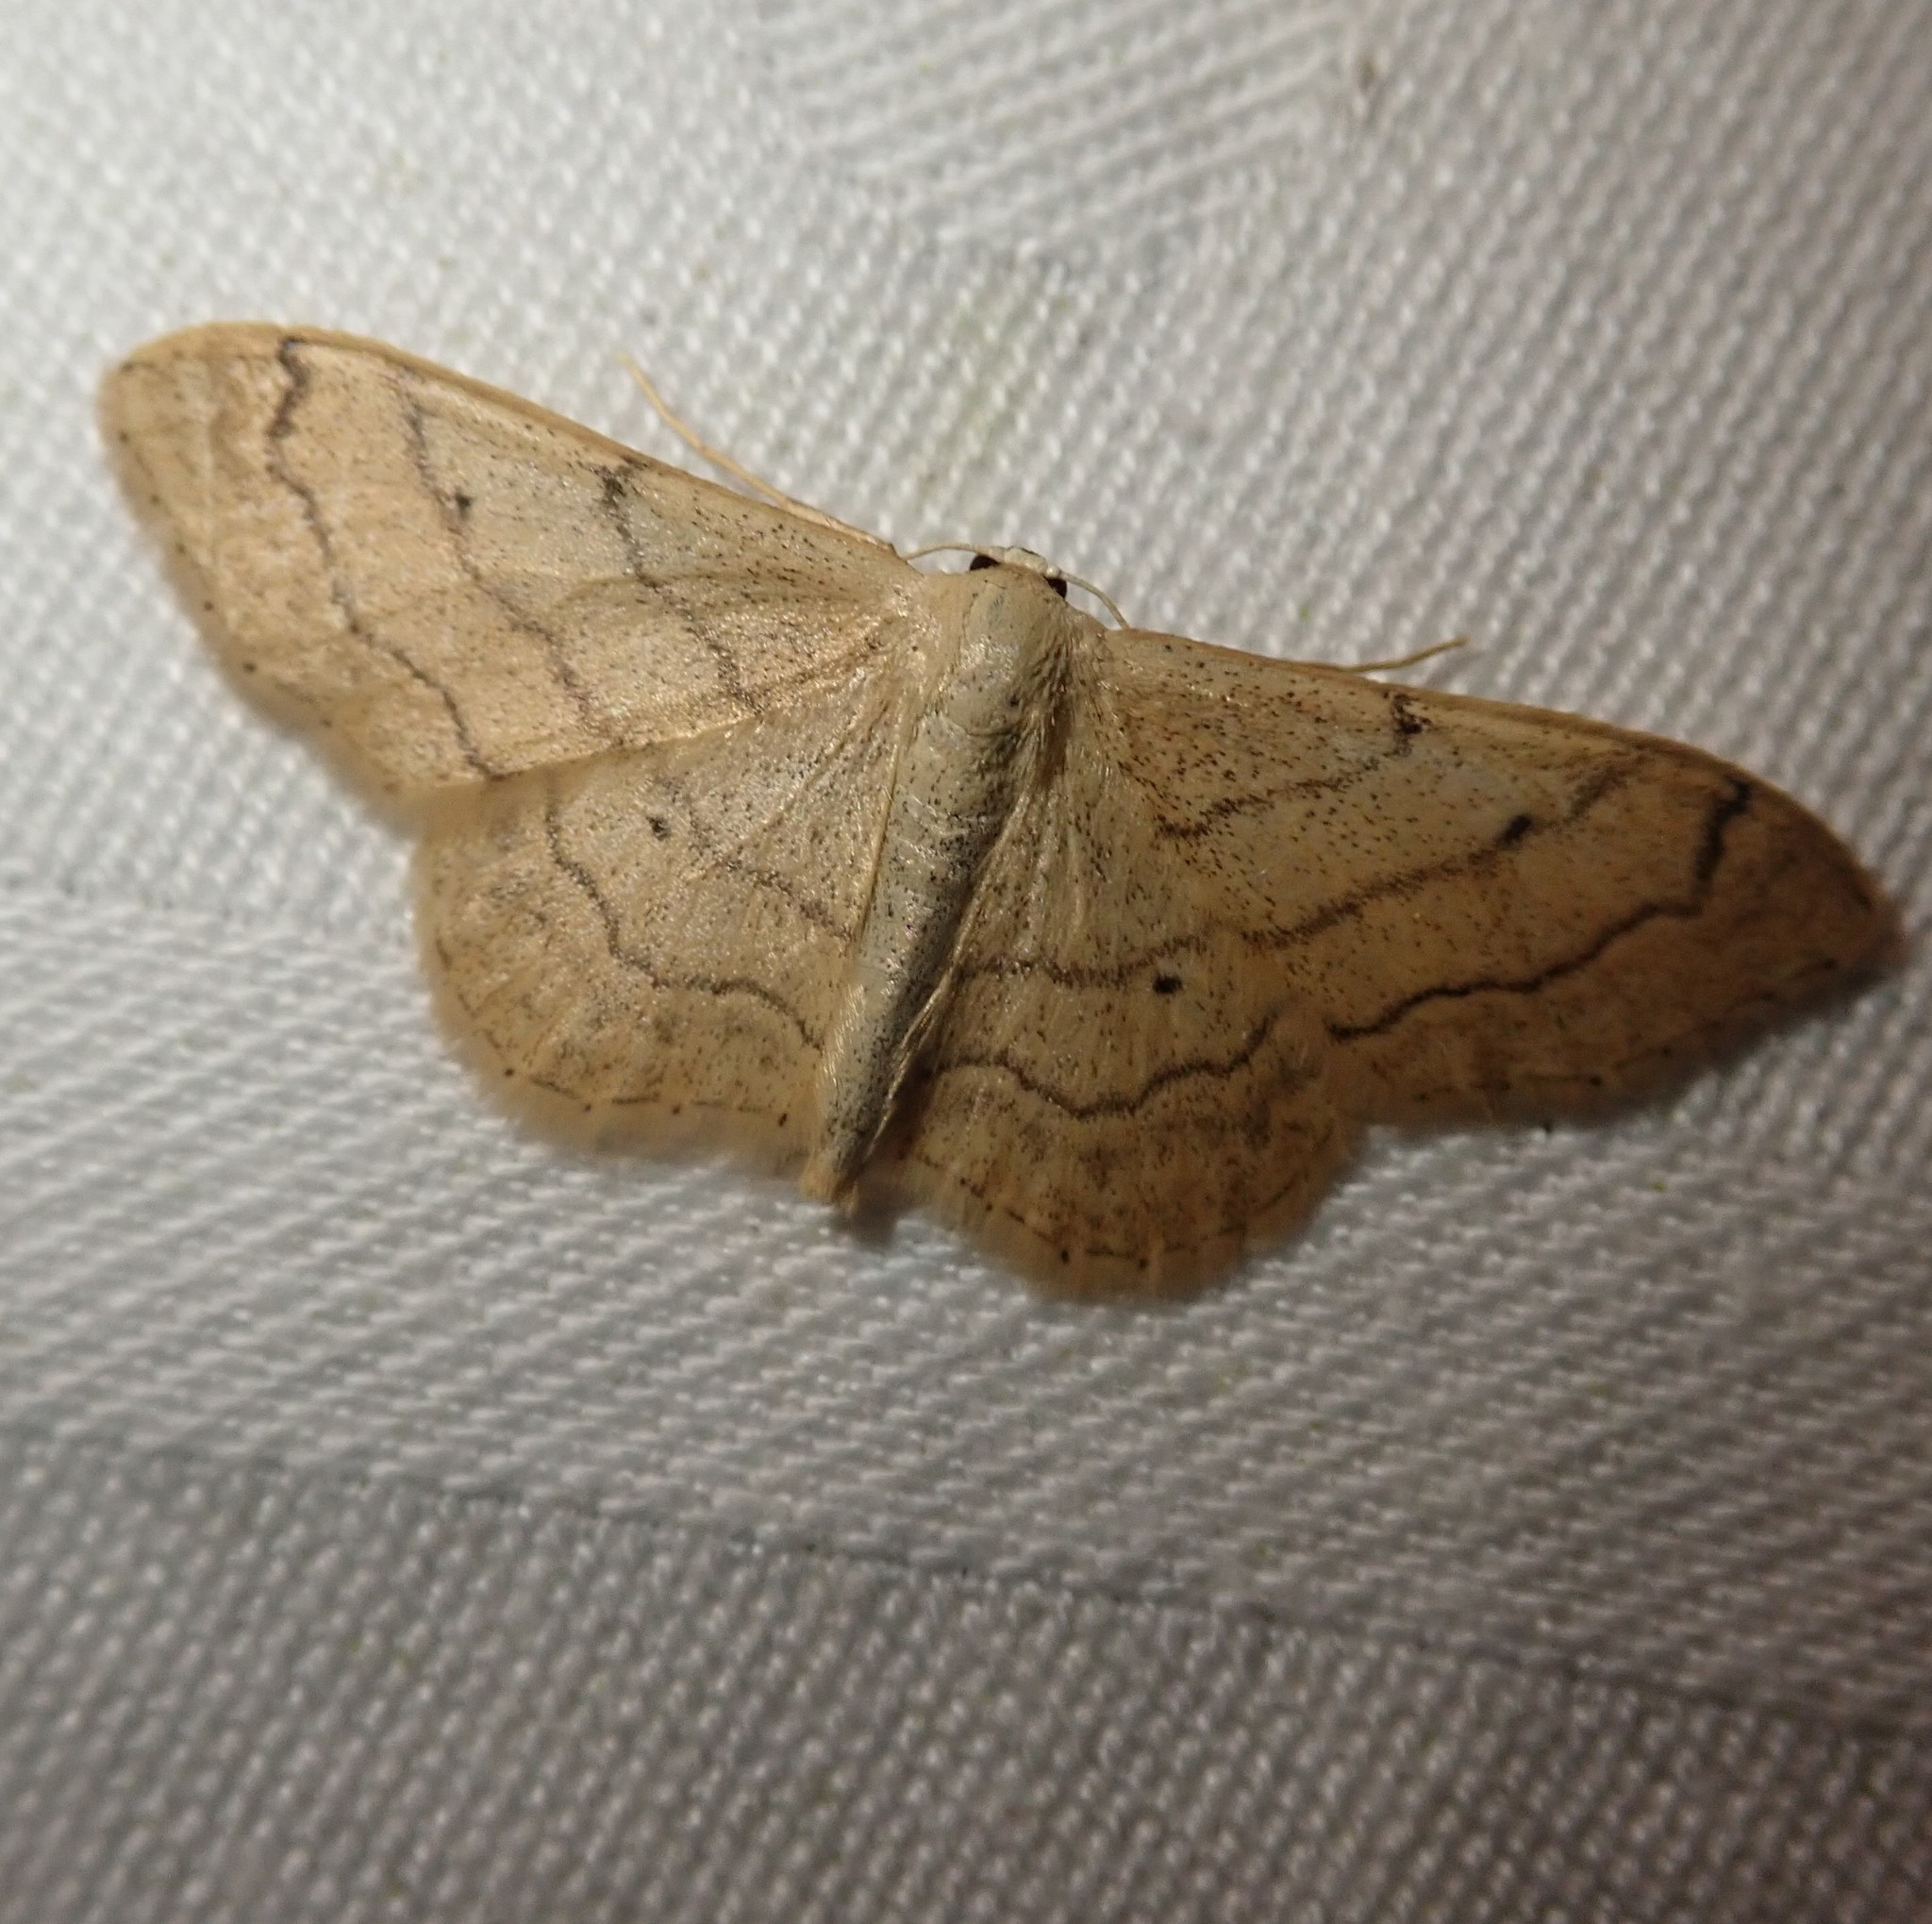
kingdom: Animalia
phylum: Arthropoda
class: Insecta
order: Lepidoptera
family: Geometridae
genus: Idaea
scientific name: Idaea aversata
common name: Riband wave
